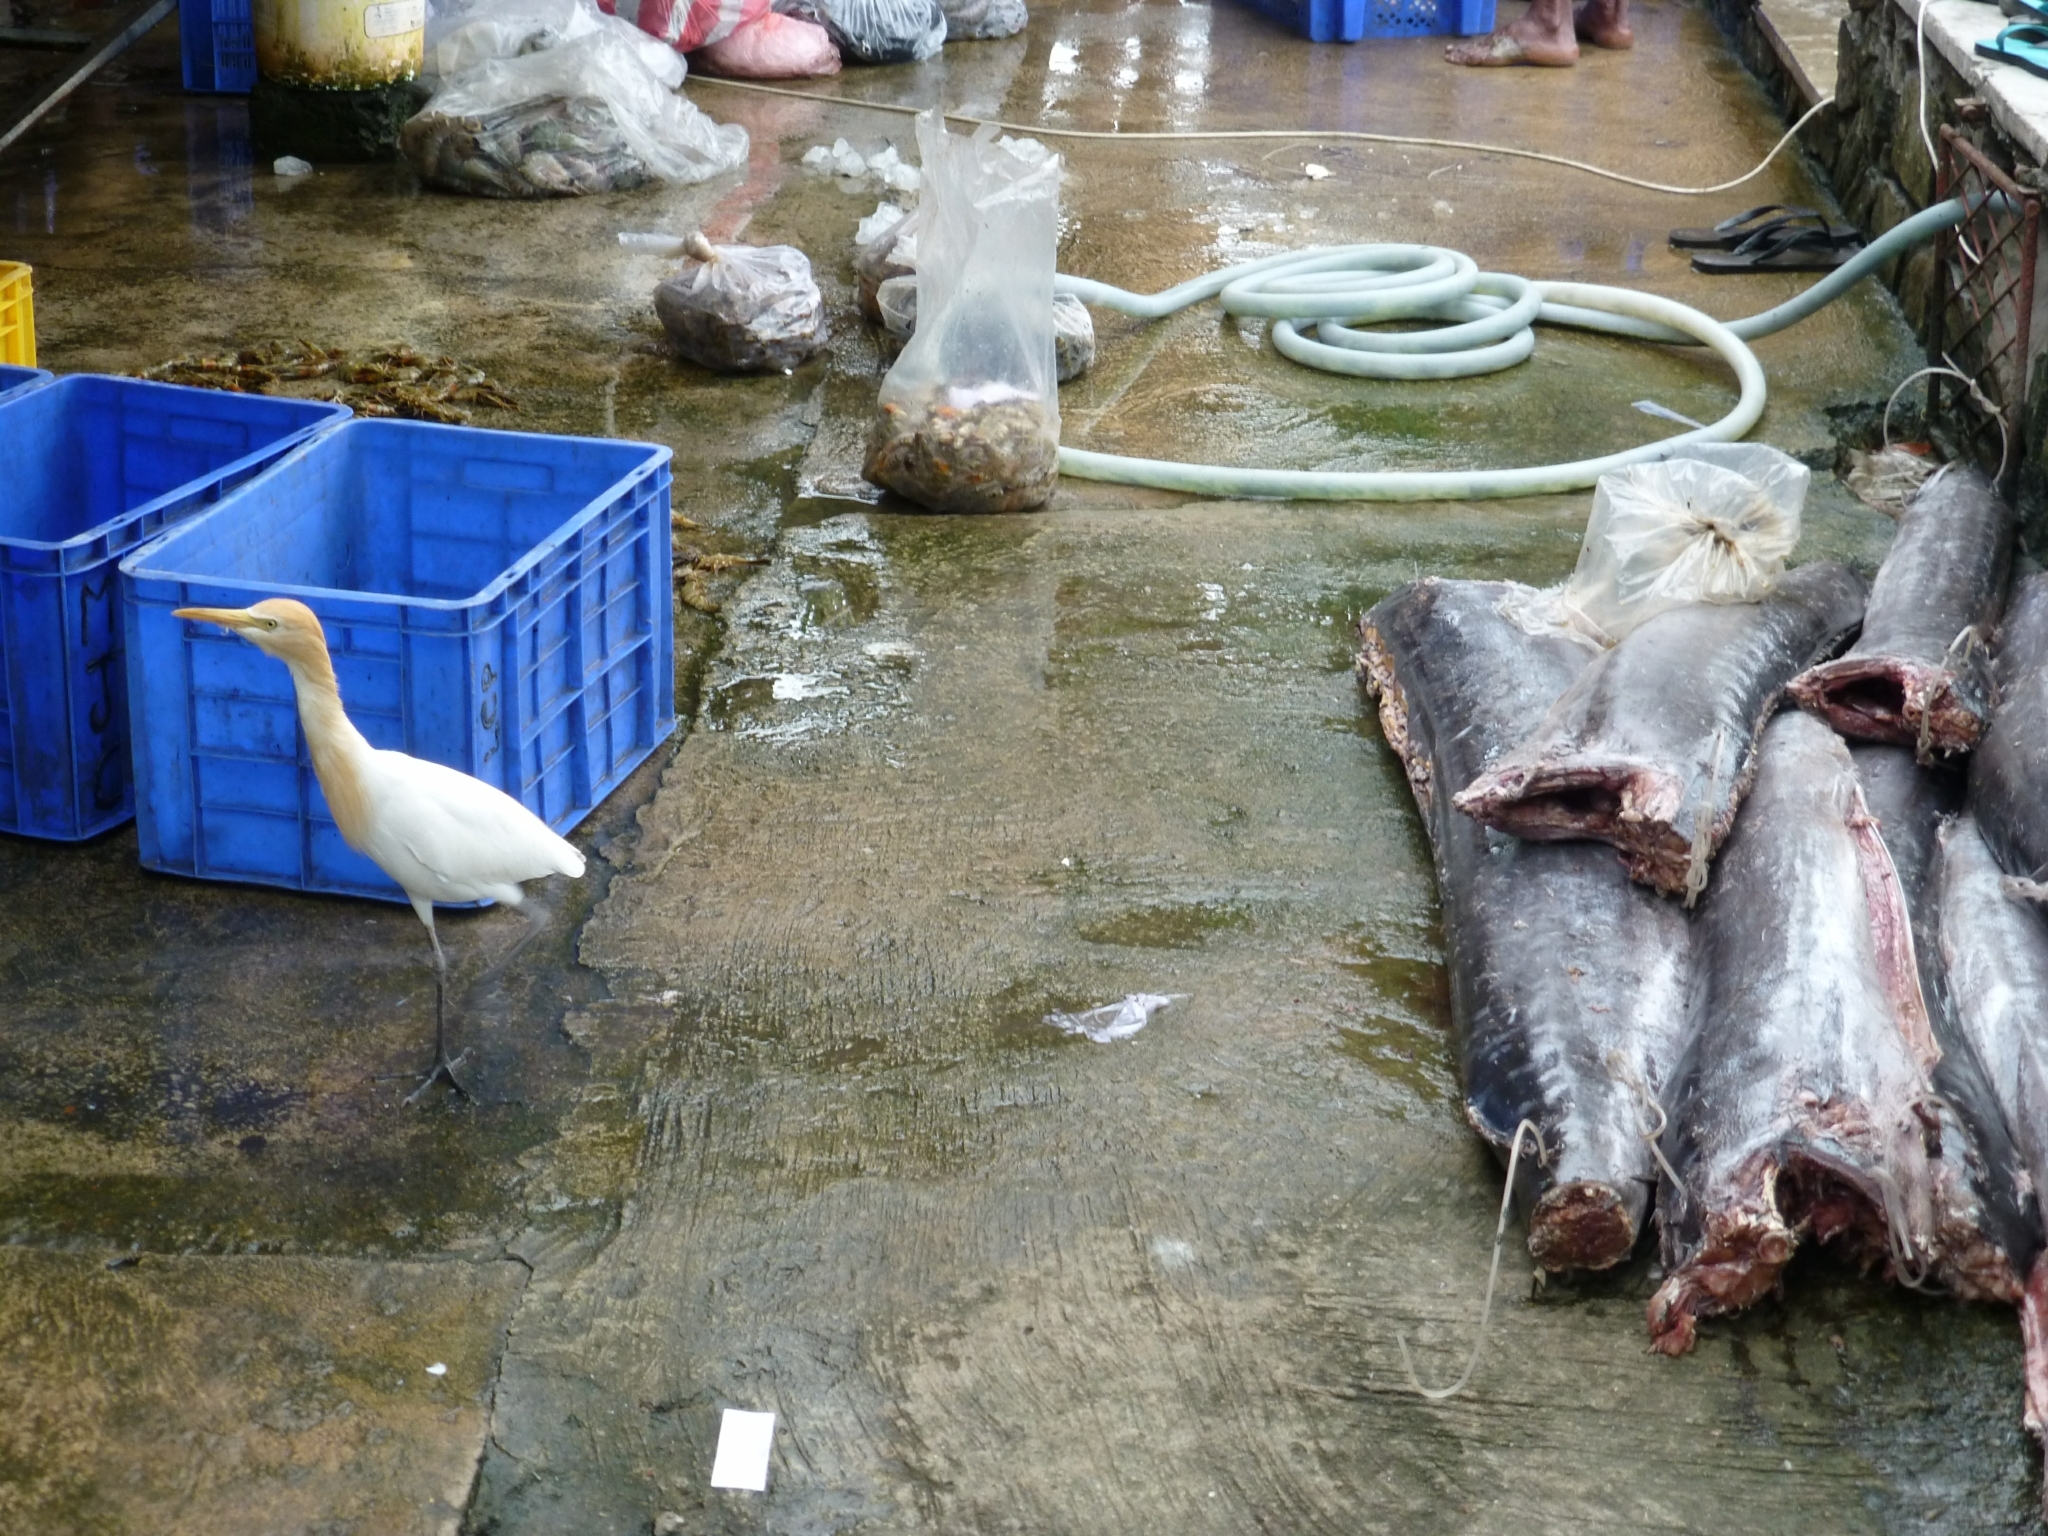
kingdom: Animalia
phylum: Chordata
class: Aves
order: Pelecaniformes
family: Ardeidae
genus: Bubulcus
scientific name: Bubulcus coromandus
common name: Eastern cattle egret
